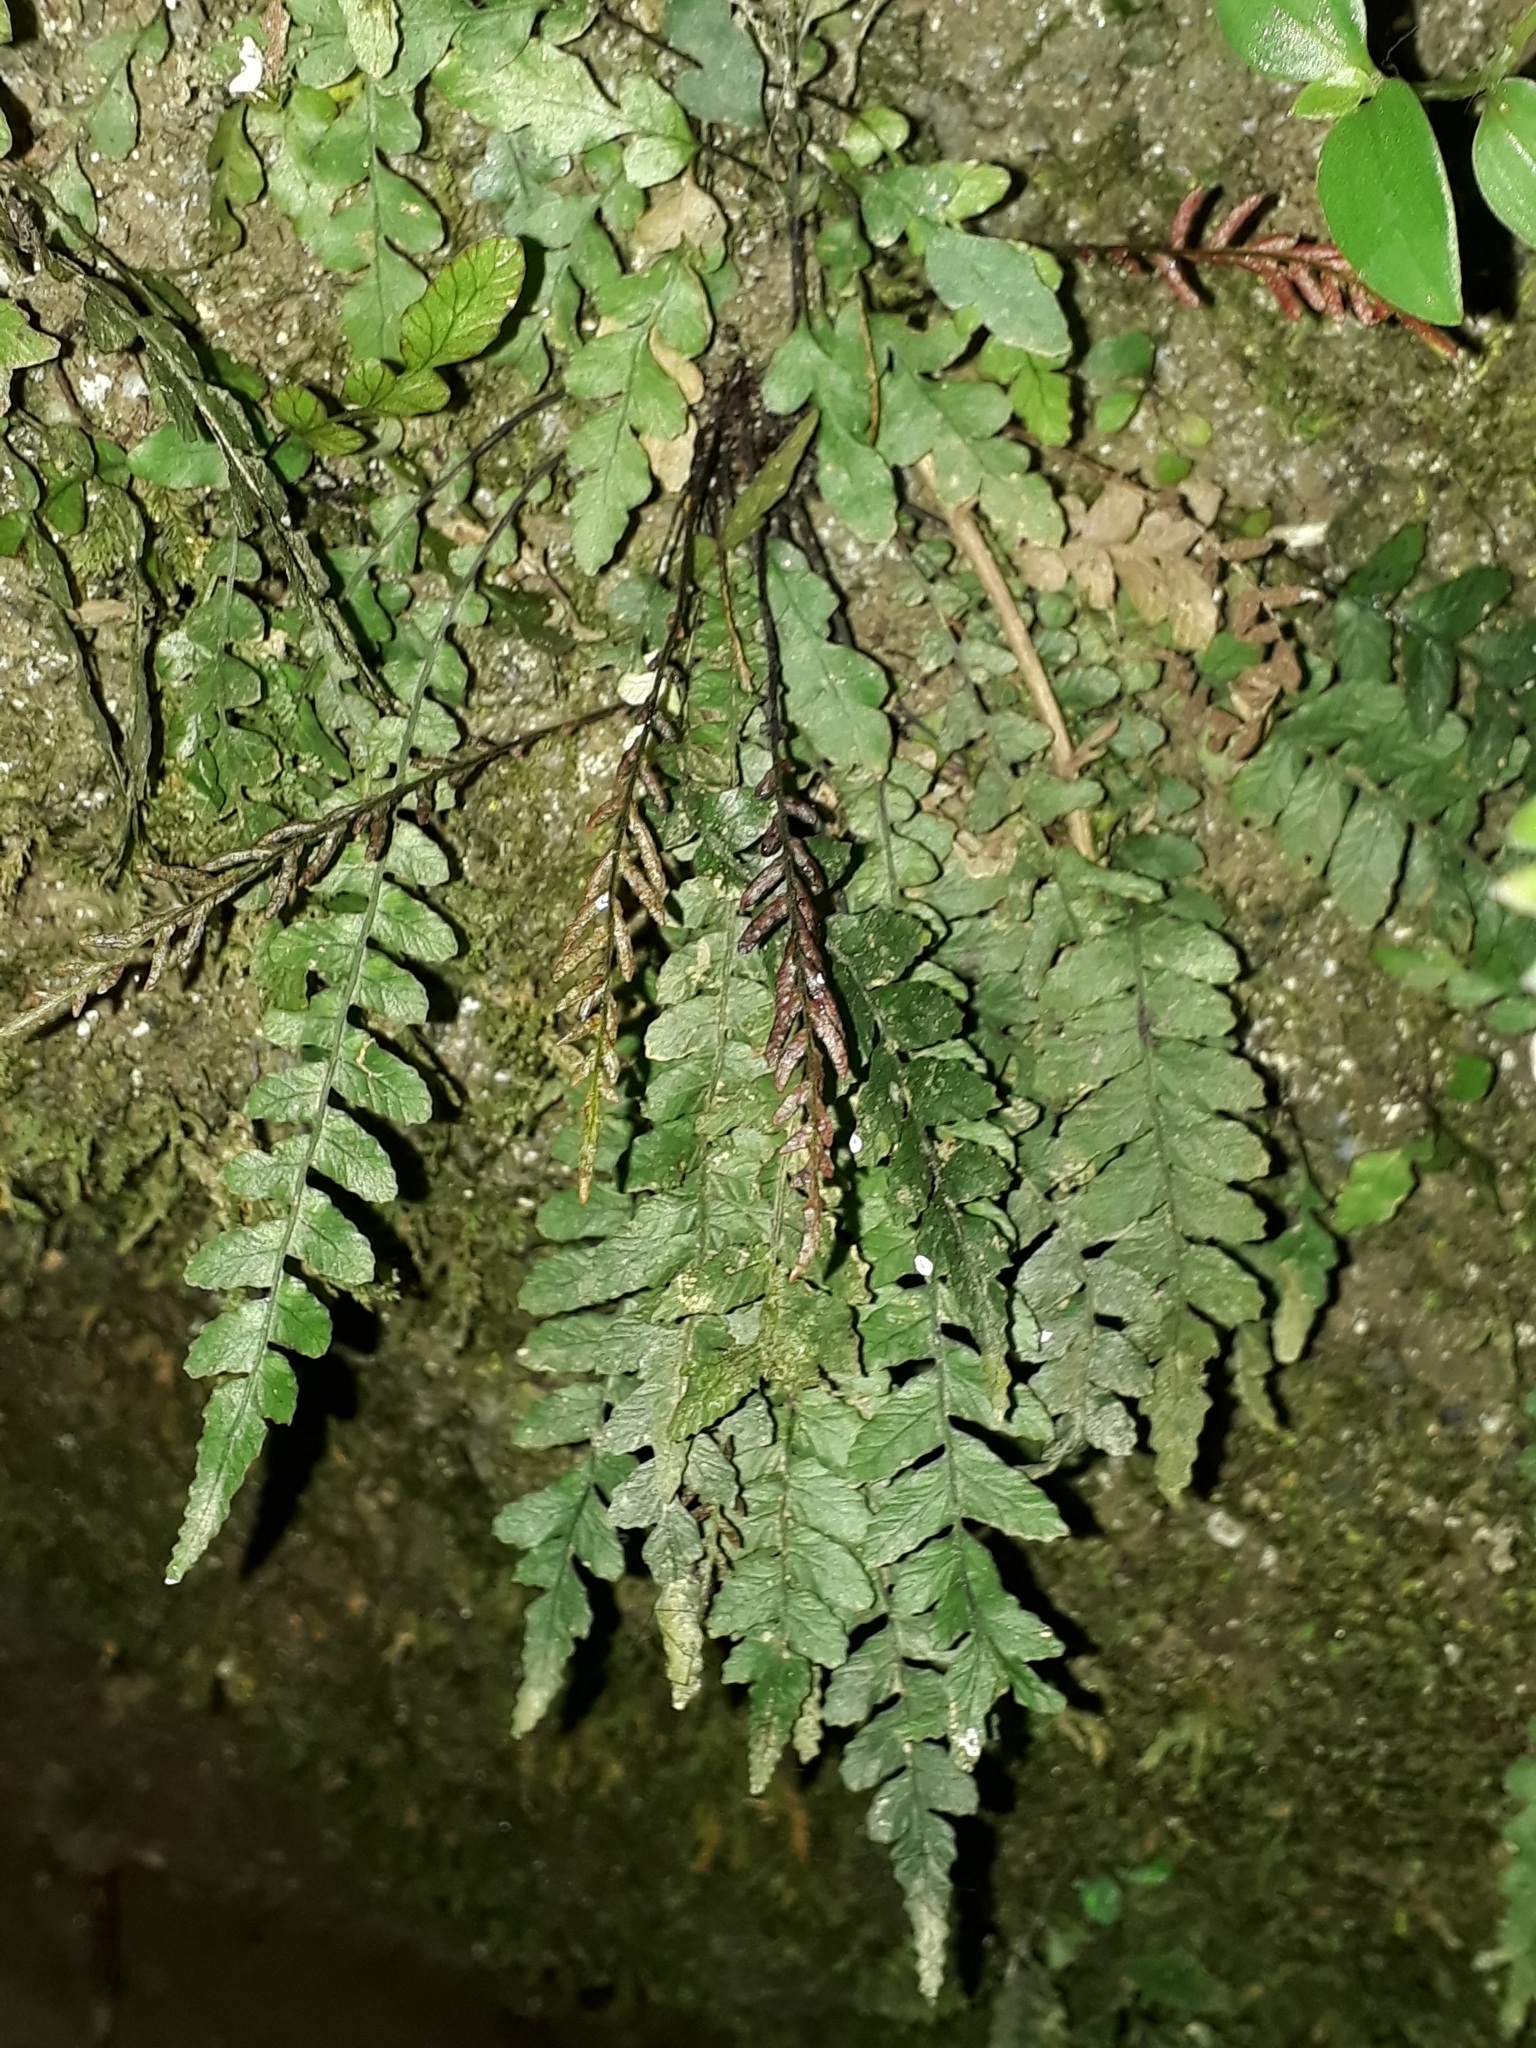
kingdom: Plantae
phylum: Tracheophyta
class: Polypodiopsida
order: Polypodiales
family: Blechnaceae
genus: Austroblechnum
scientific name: Austroblechnum membranaceum
